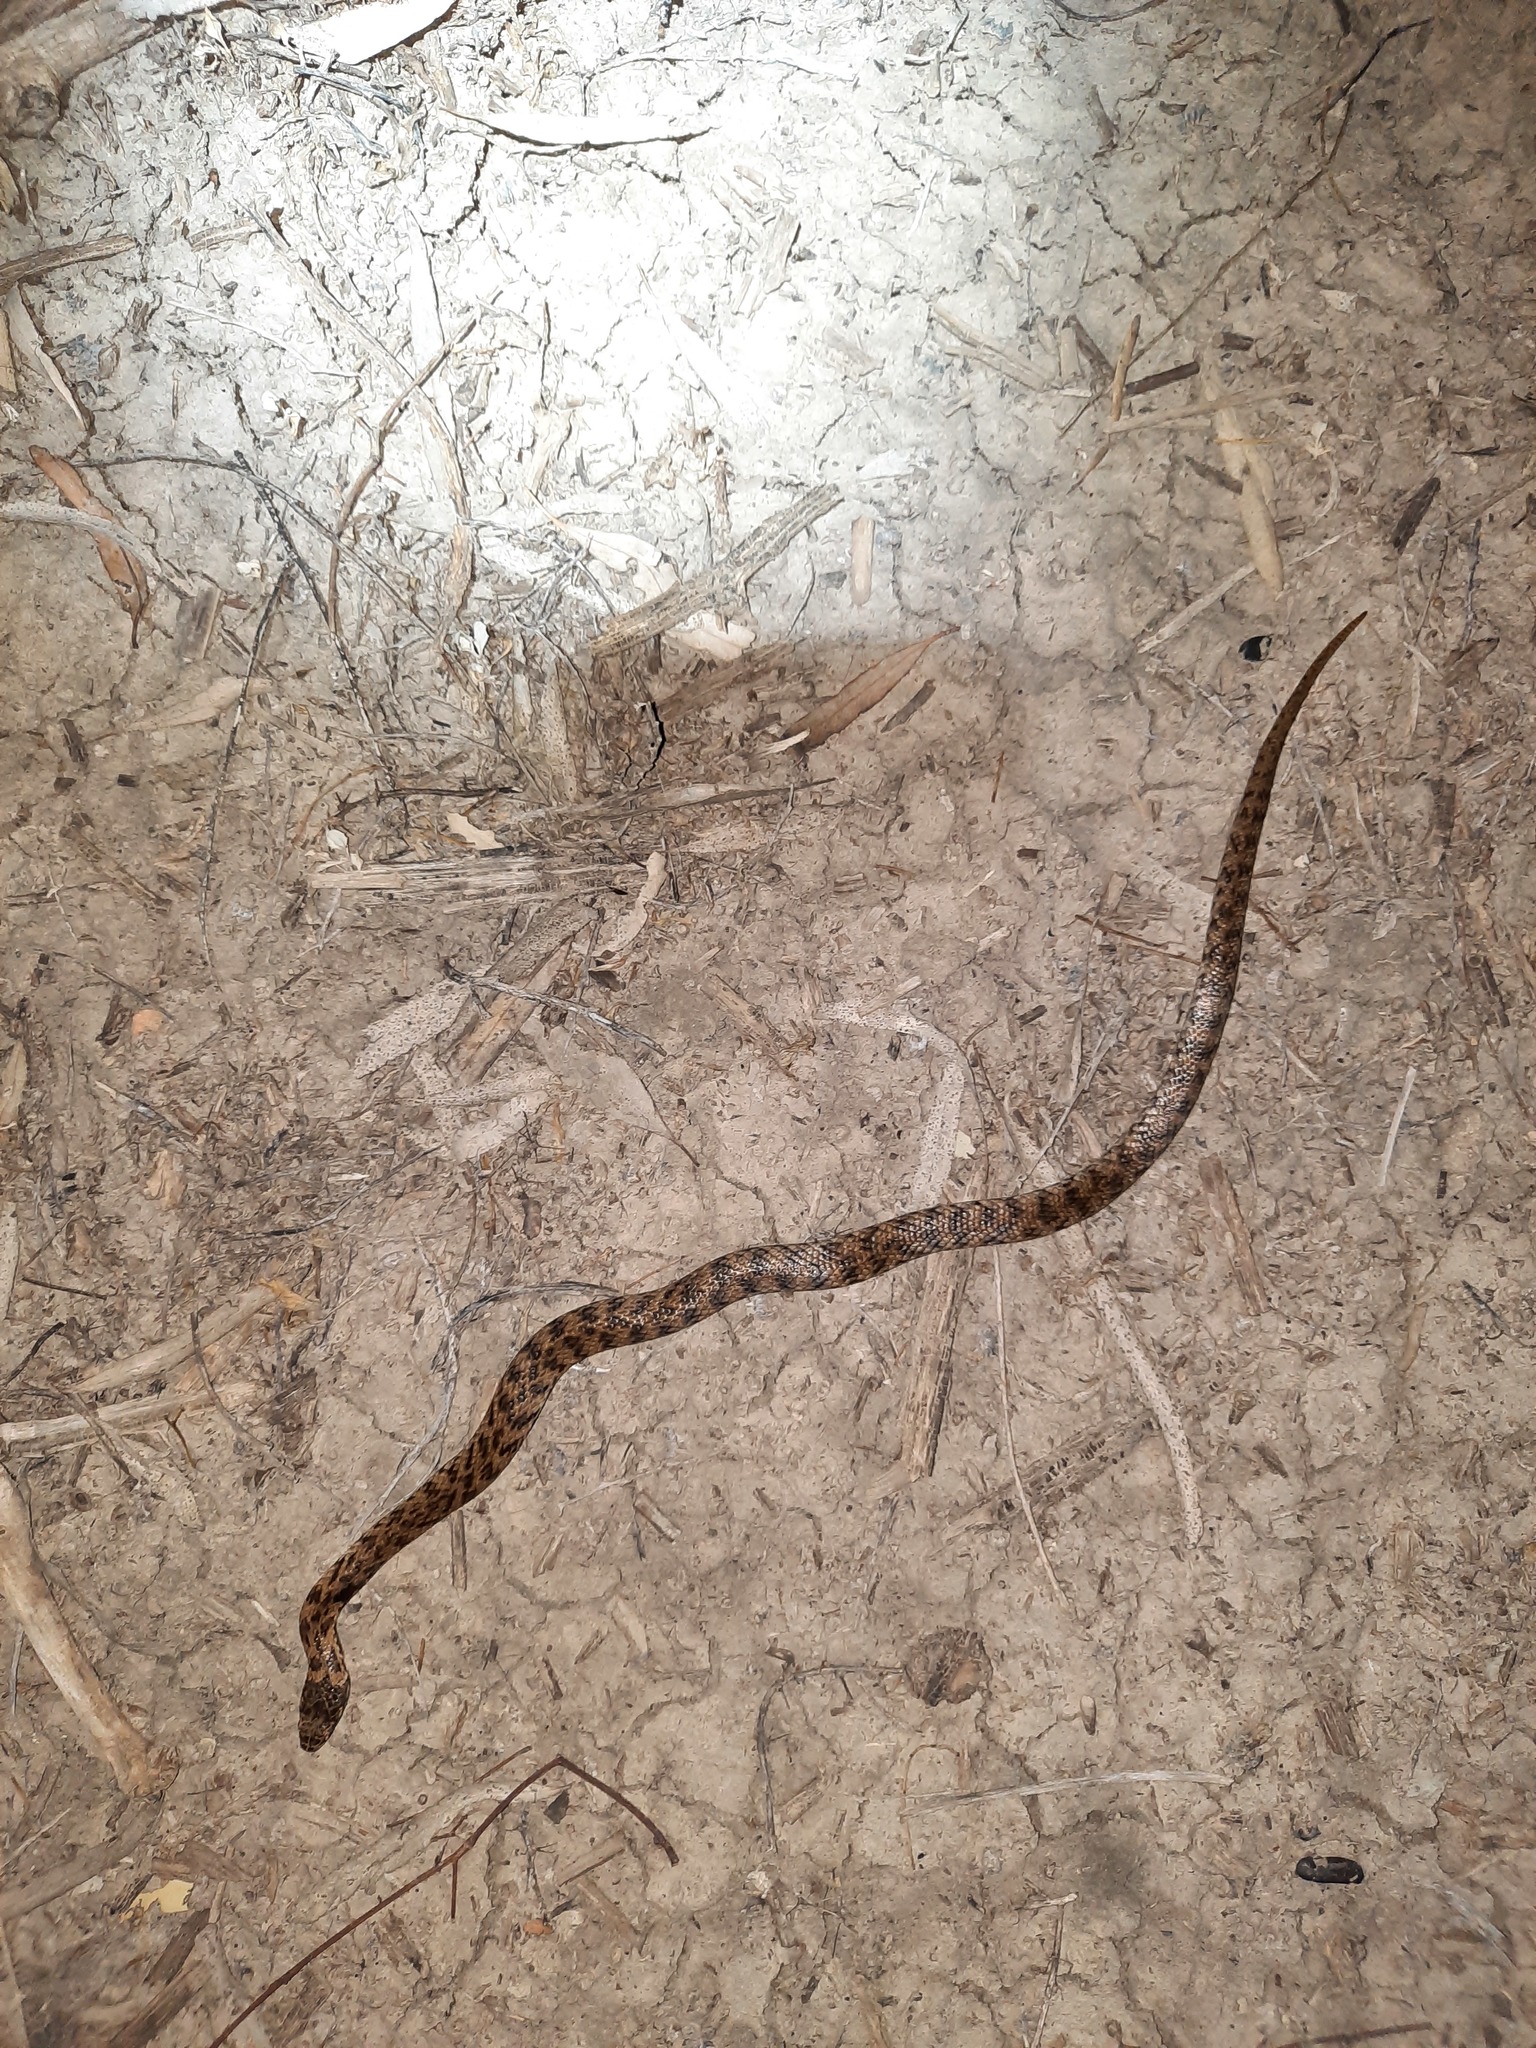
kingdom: Animalia
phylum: Chordata
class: Squamata
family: Elapidae
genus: Denisonia
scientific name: Denisonia devisi
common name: De vis banded snake
